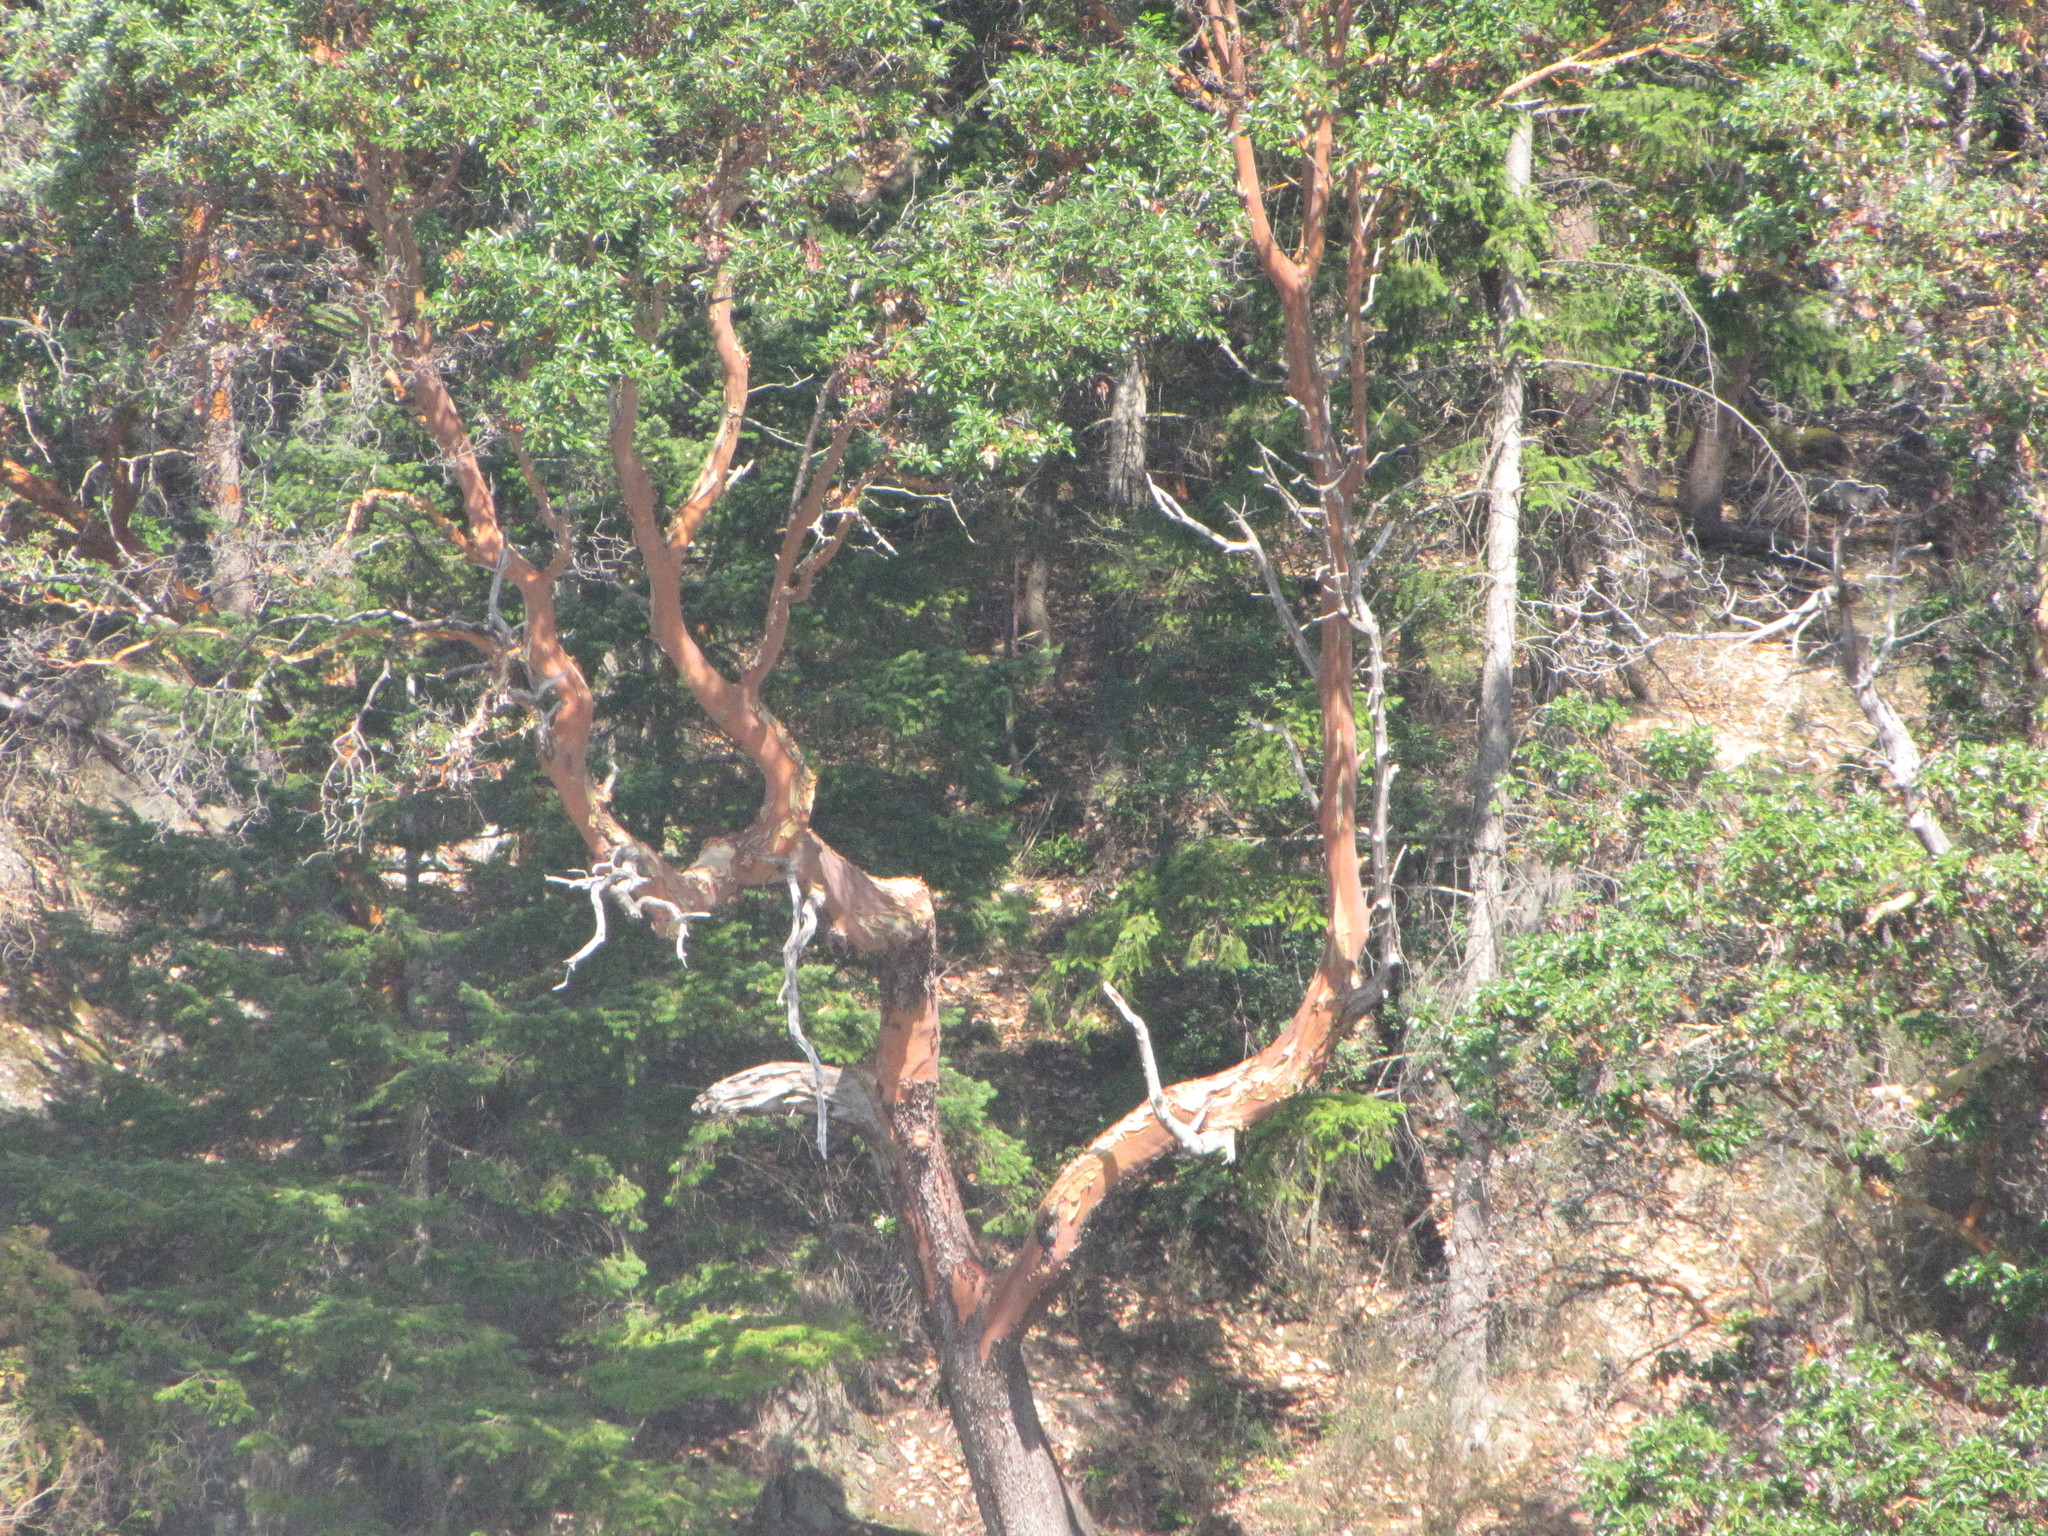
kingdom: Plantae
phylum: Tracheophyta
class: Magnoliopsida
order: Ericales
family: Ericaceae
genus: Arbutus
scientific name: Arbutus menziesii
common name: Pacific madrone
